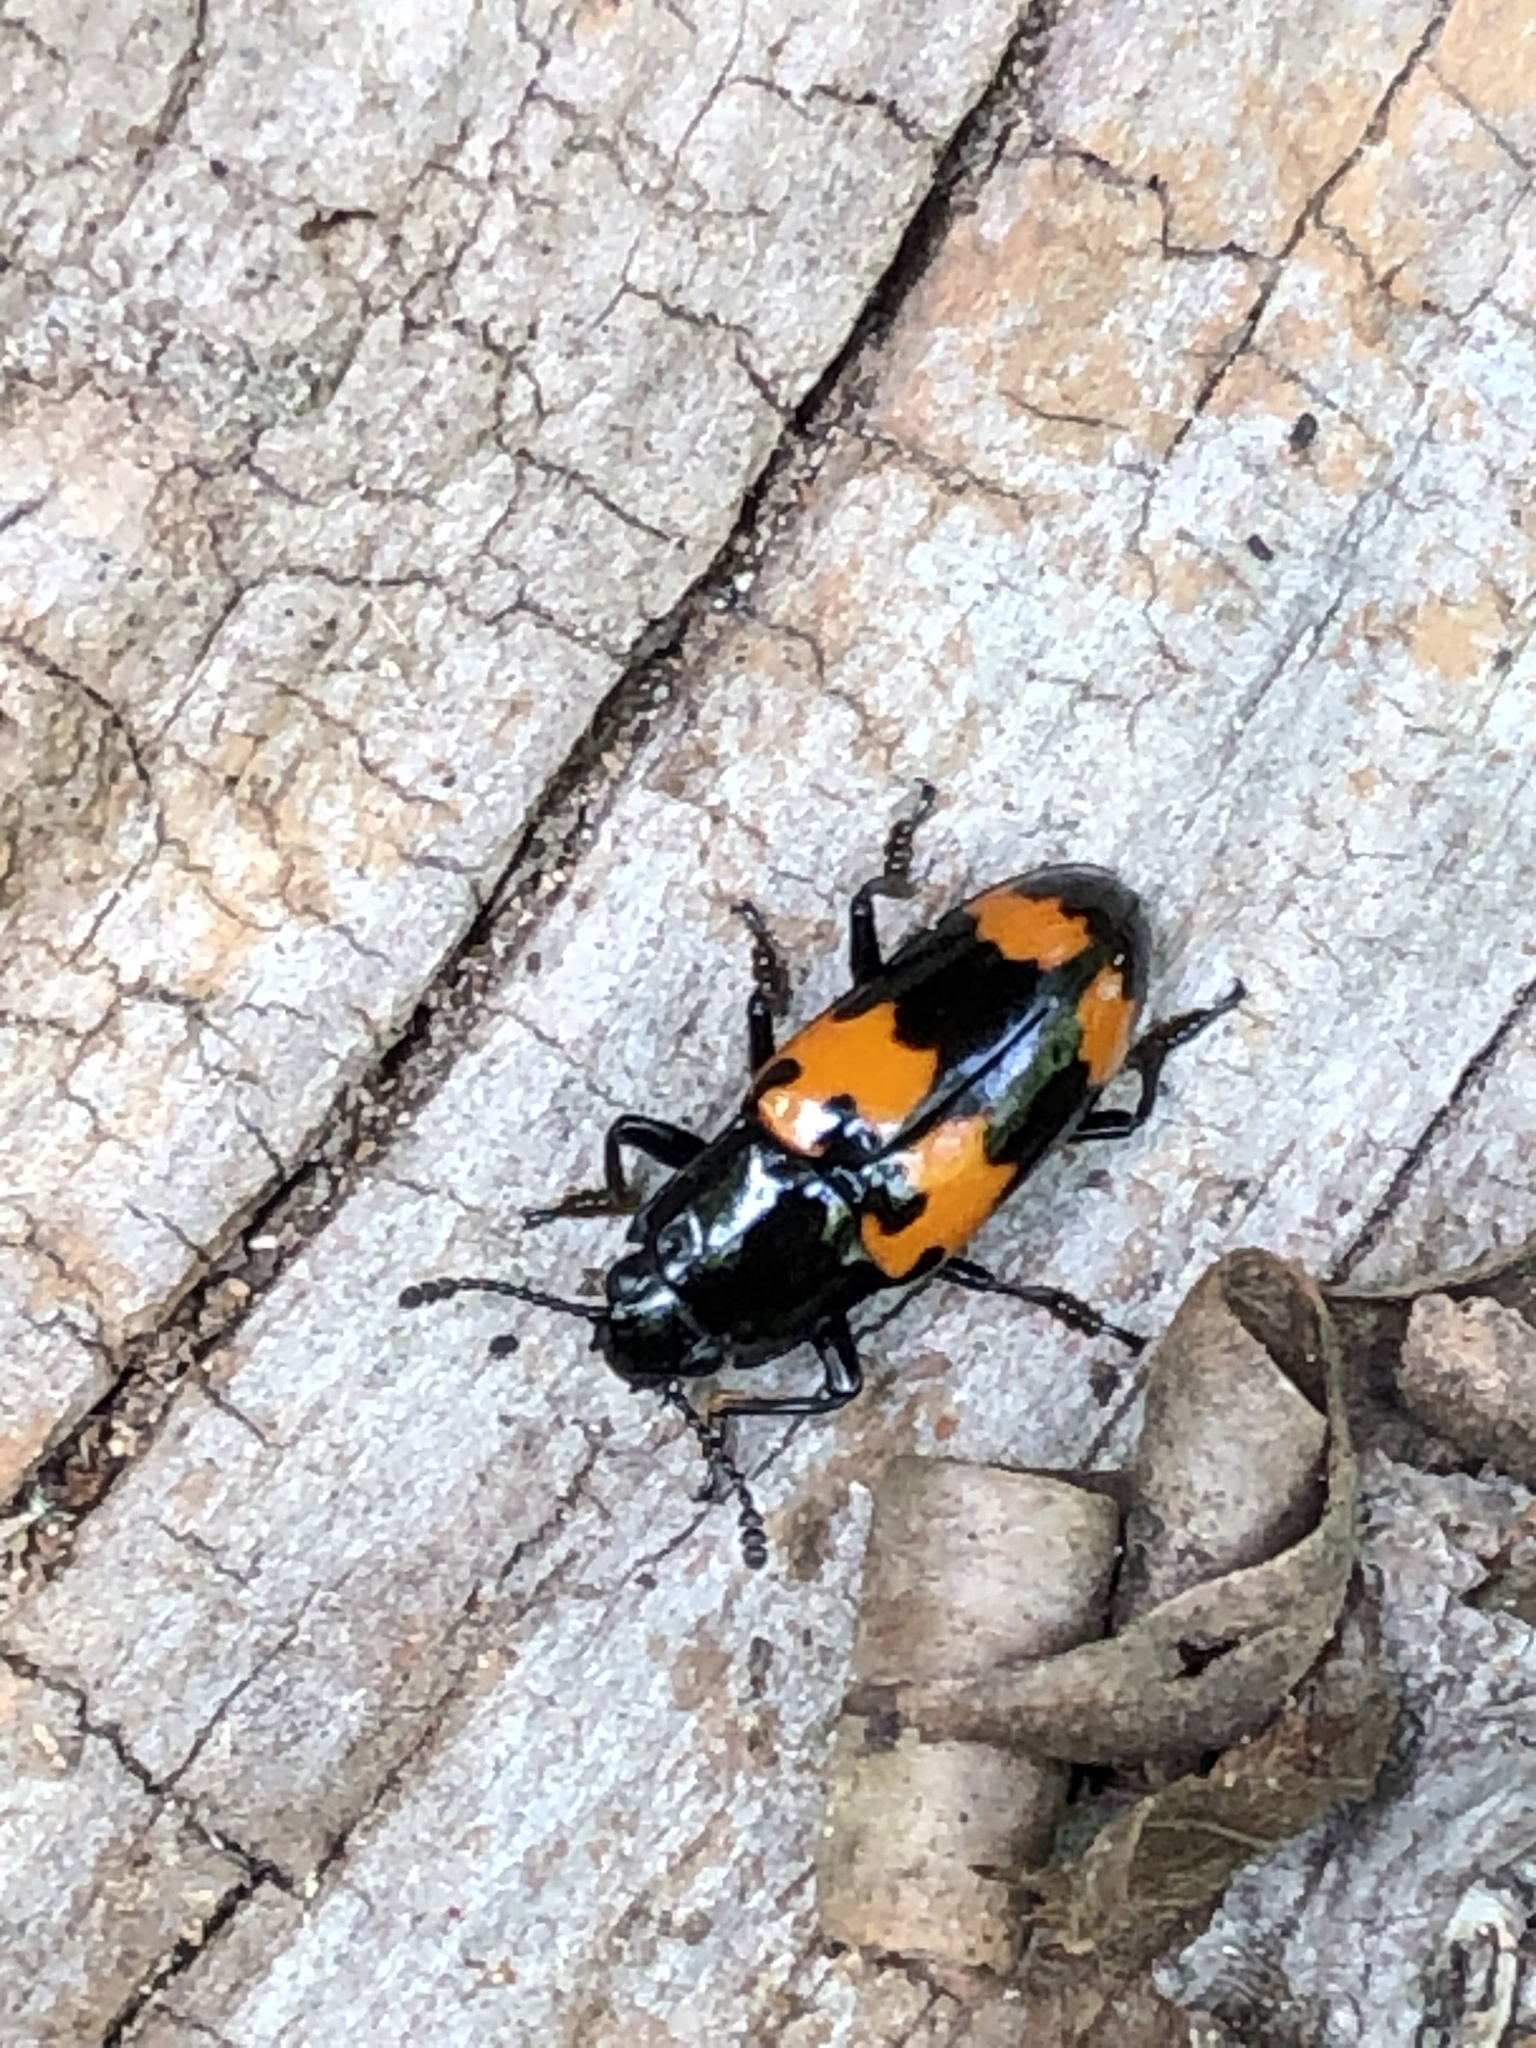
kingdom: Animalia
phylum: Arthropoda
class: Insecta
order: Coleoptera
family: Erotylidae
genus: Megalodacne
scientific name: Megalodacne heros
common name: Pleasing fungus beetle
